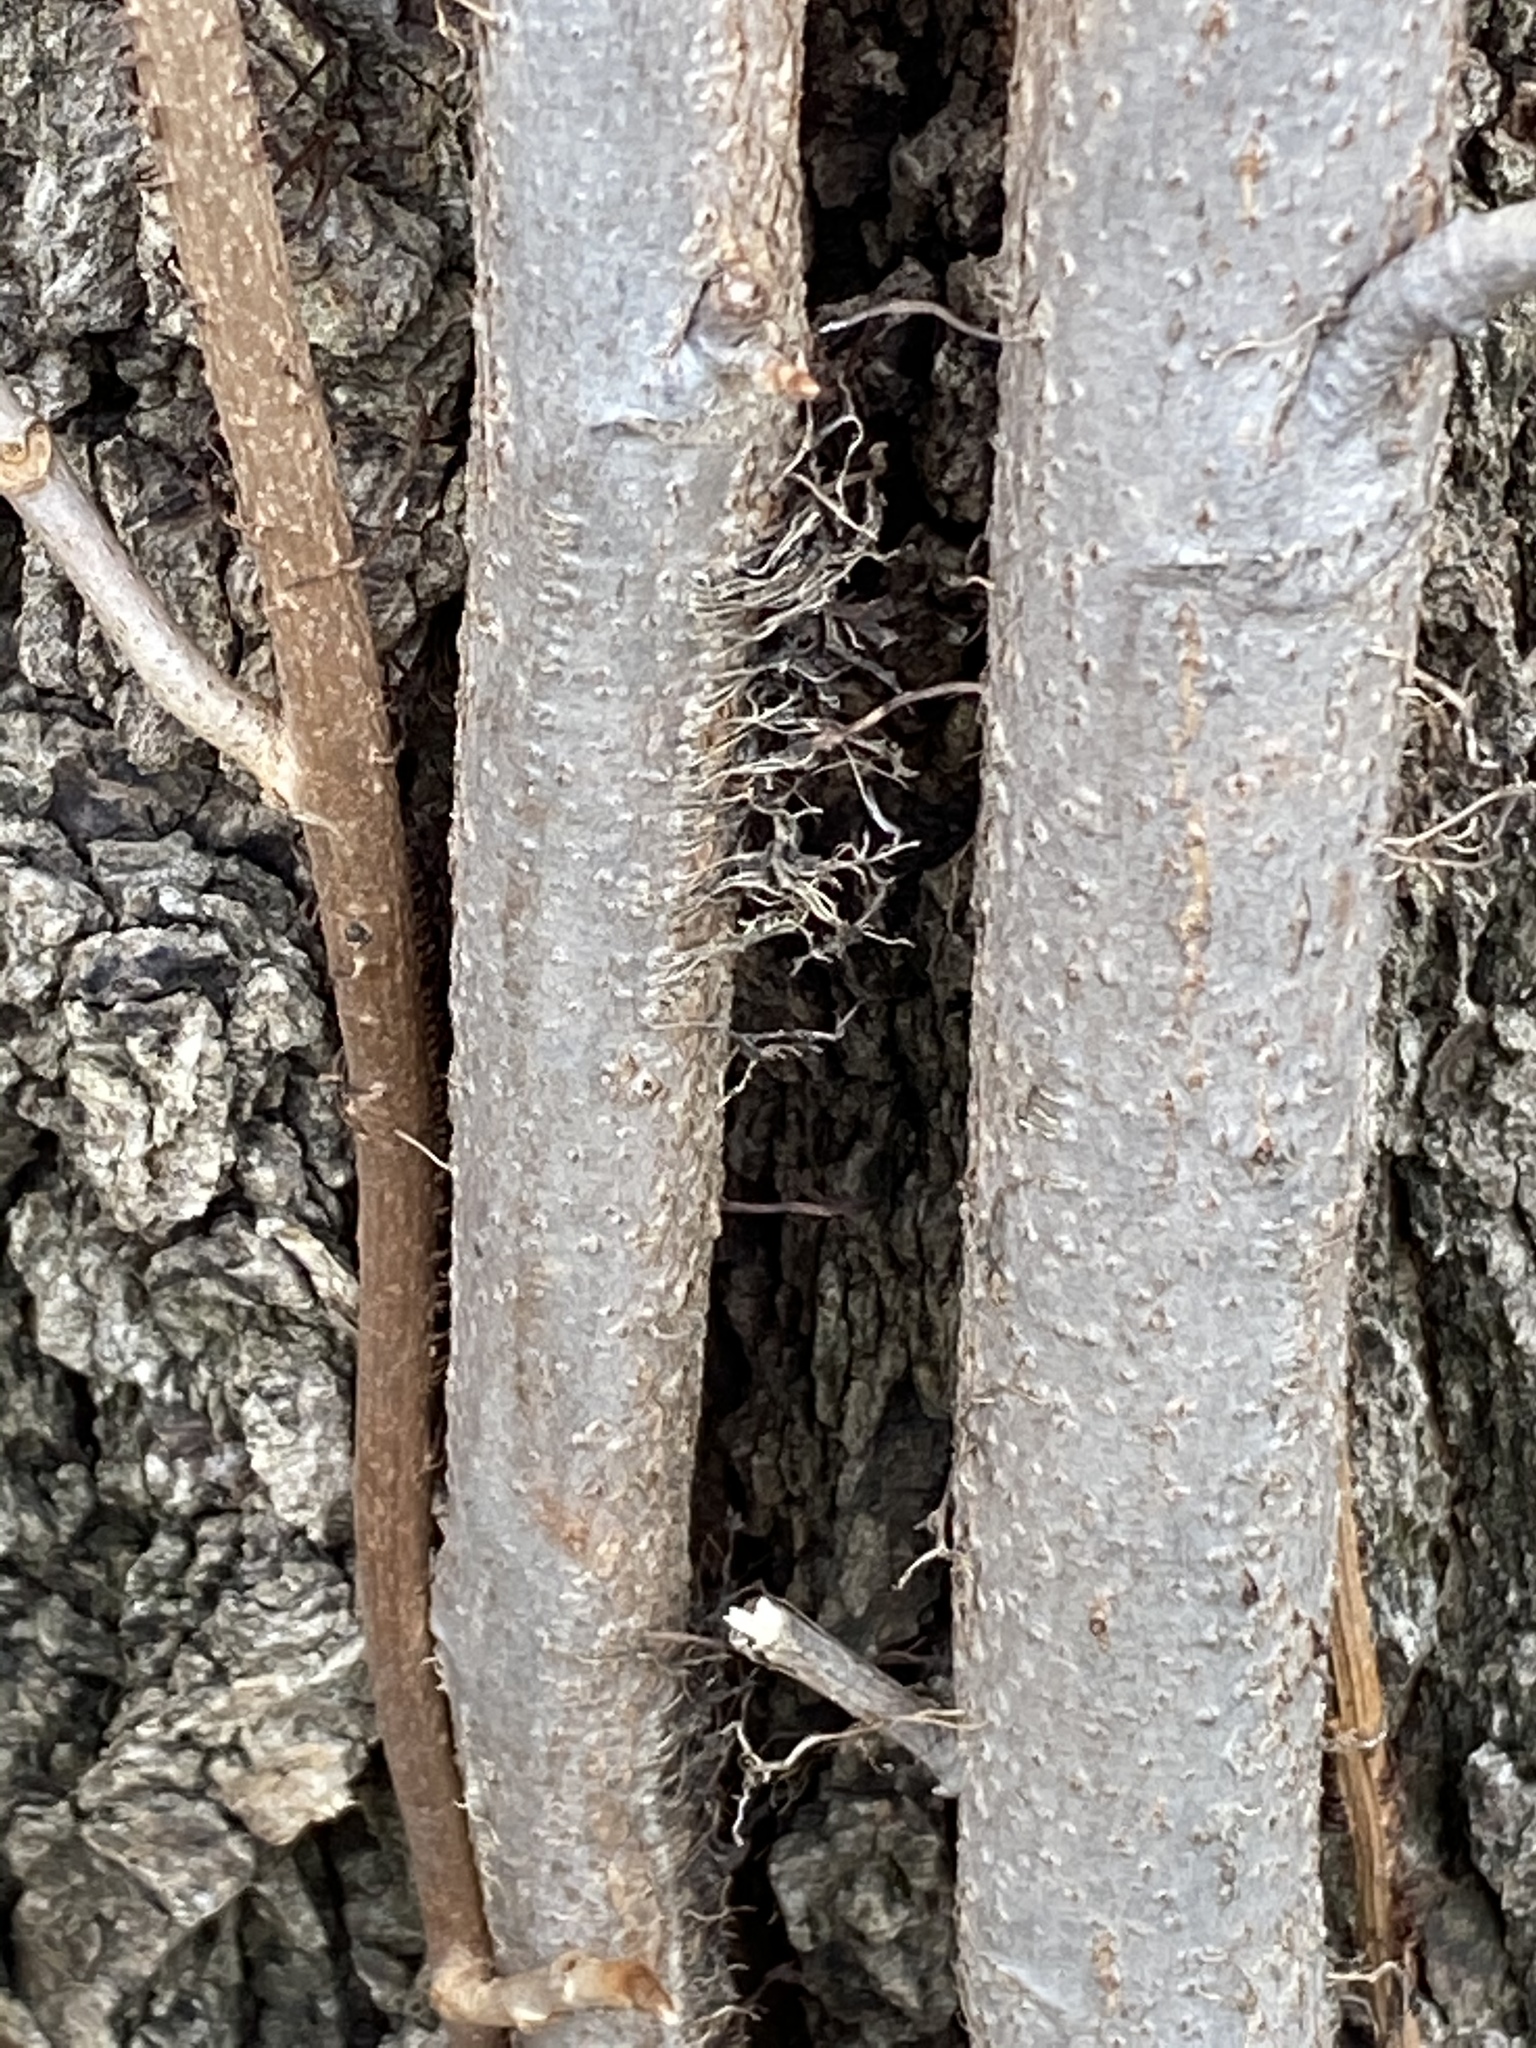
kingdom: Plantae
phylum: Tracheophyta
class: Magnoliopsida
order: Sapindales
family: Anacardiaceae
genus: Toxicodendron
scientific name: Toxicodendron radicans
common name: Poison ivy
